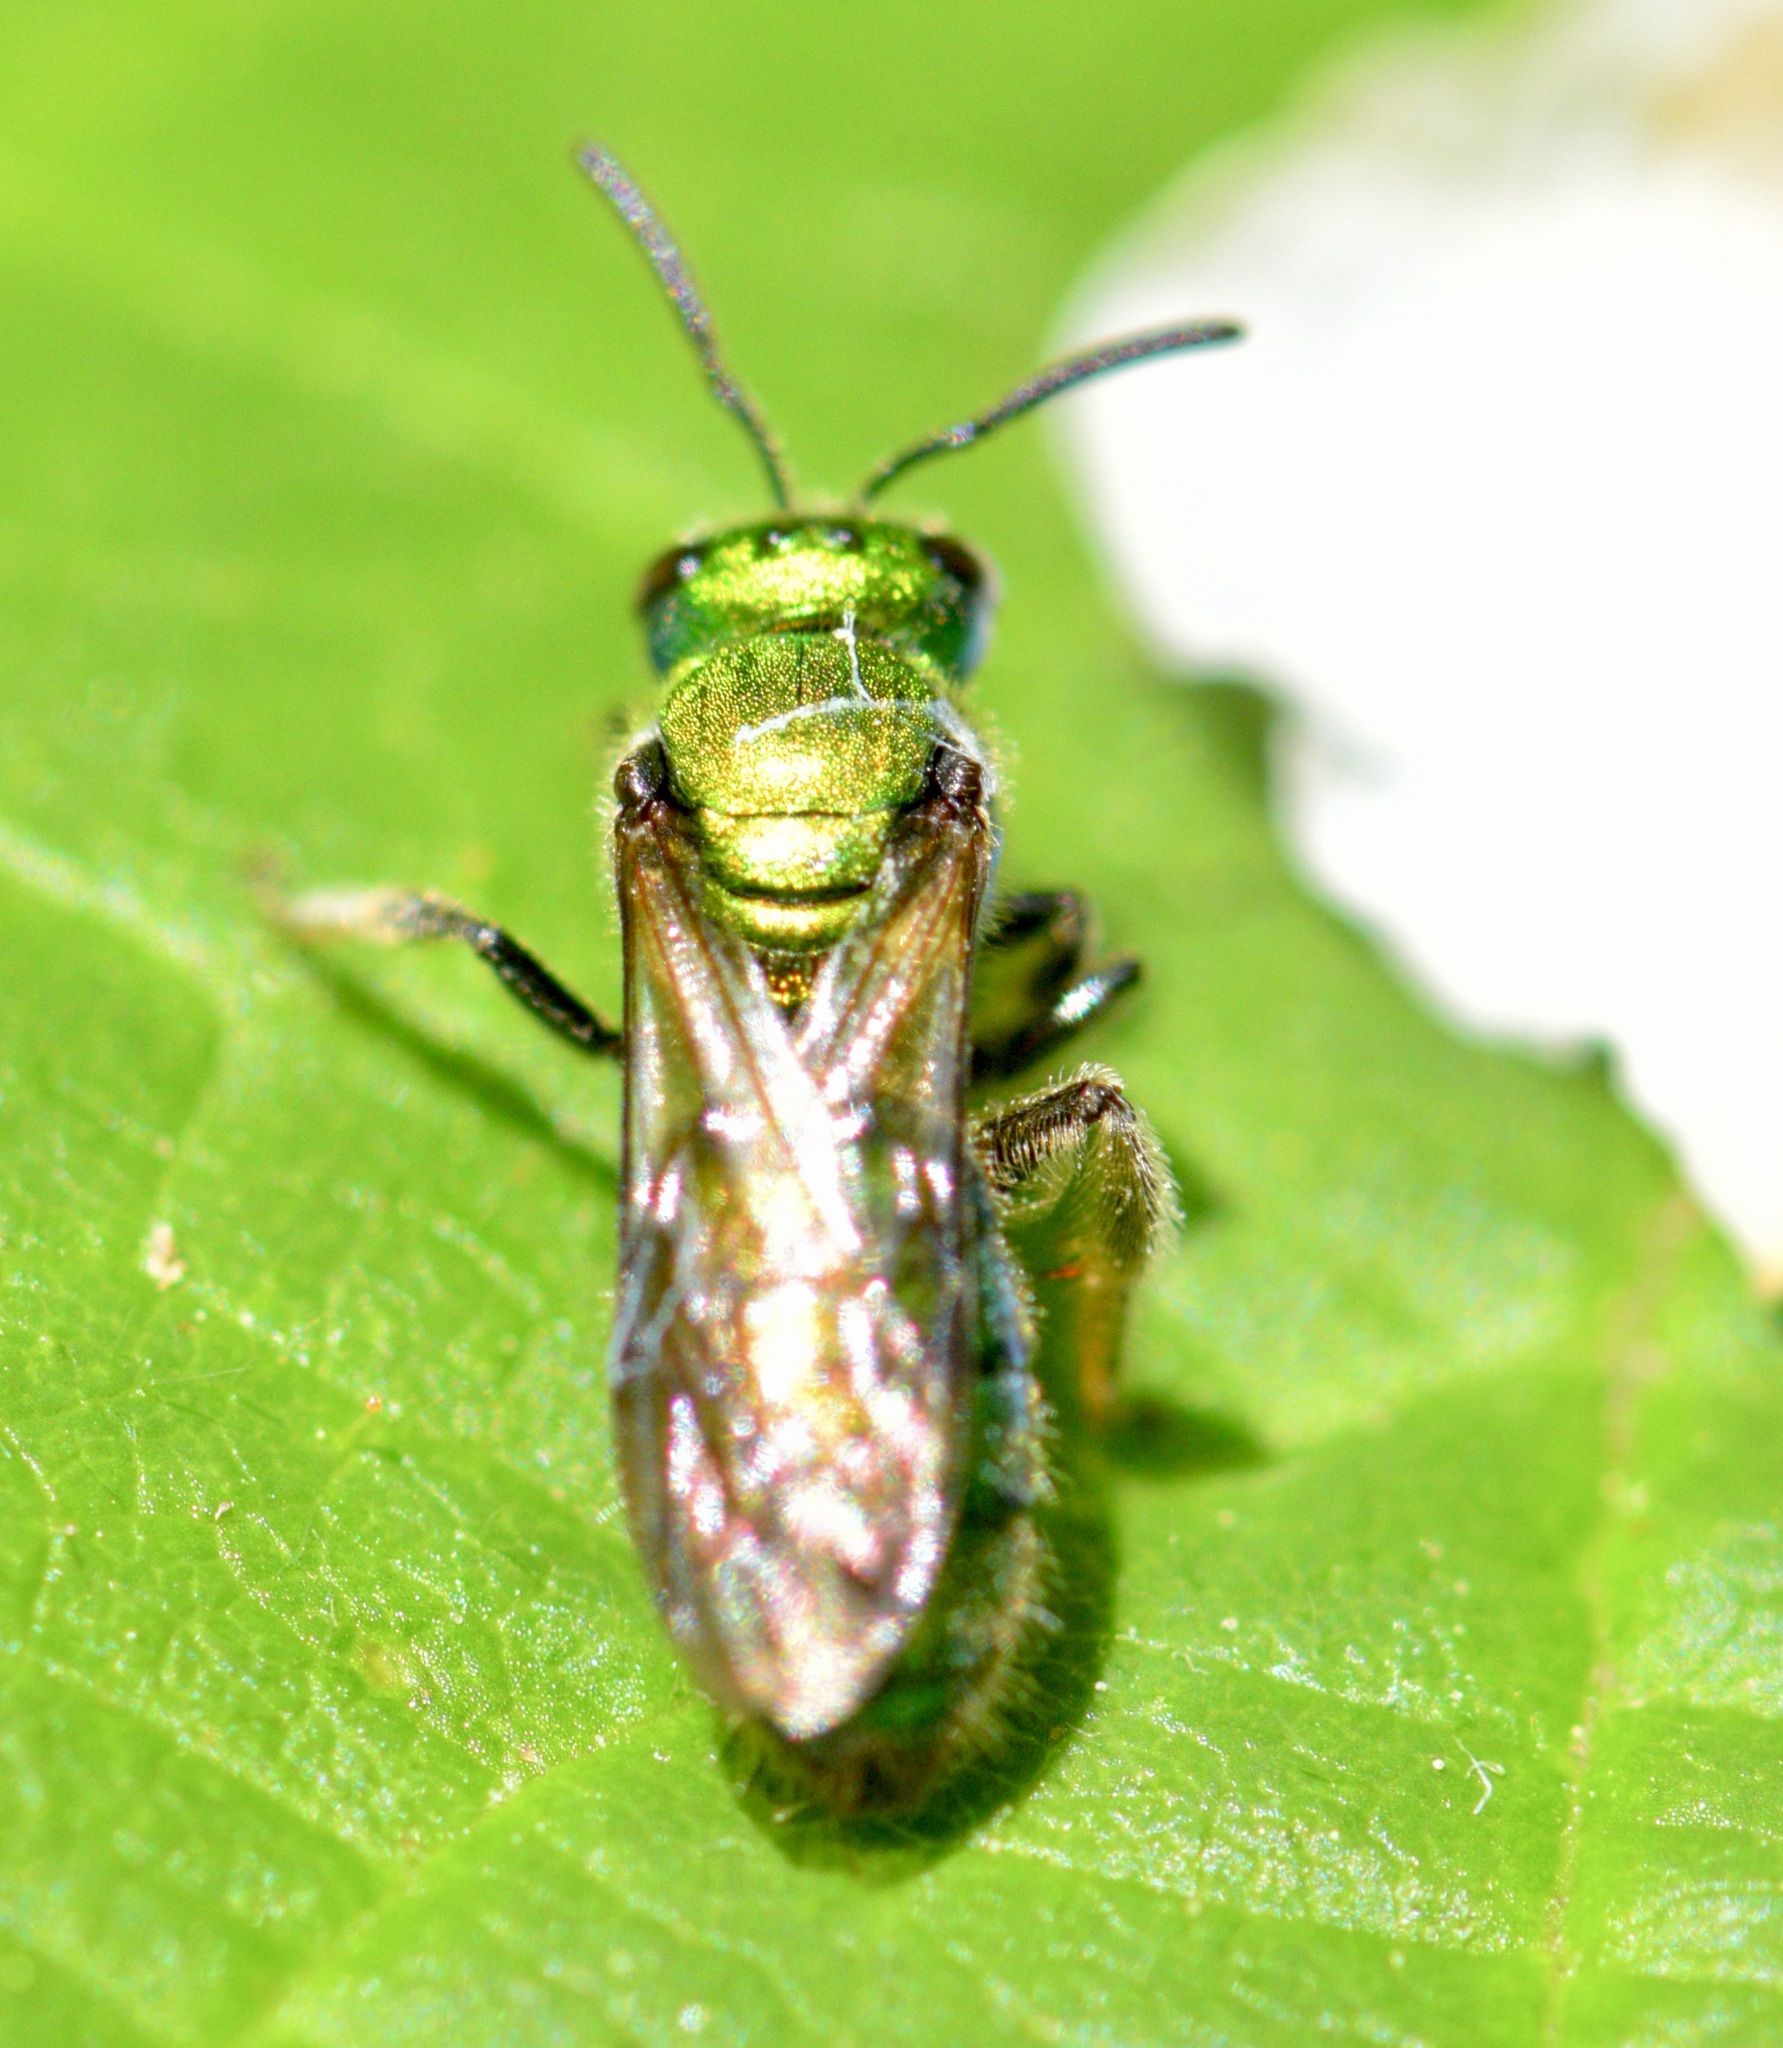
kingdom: Animalia
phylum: Arthropoda
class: Insecta
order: Hymenoptera
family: Halictidae
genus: Augochlora
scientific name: Augochlora pura
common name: Pure green sweat bee
